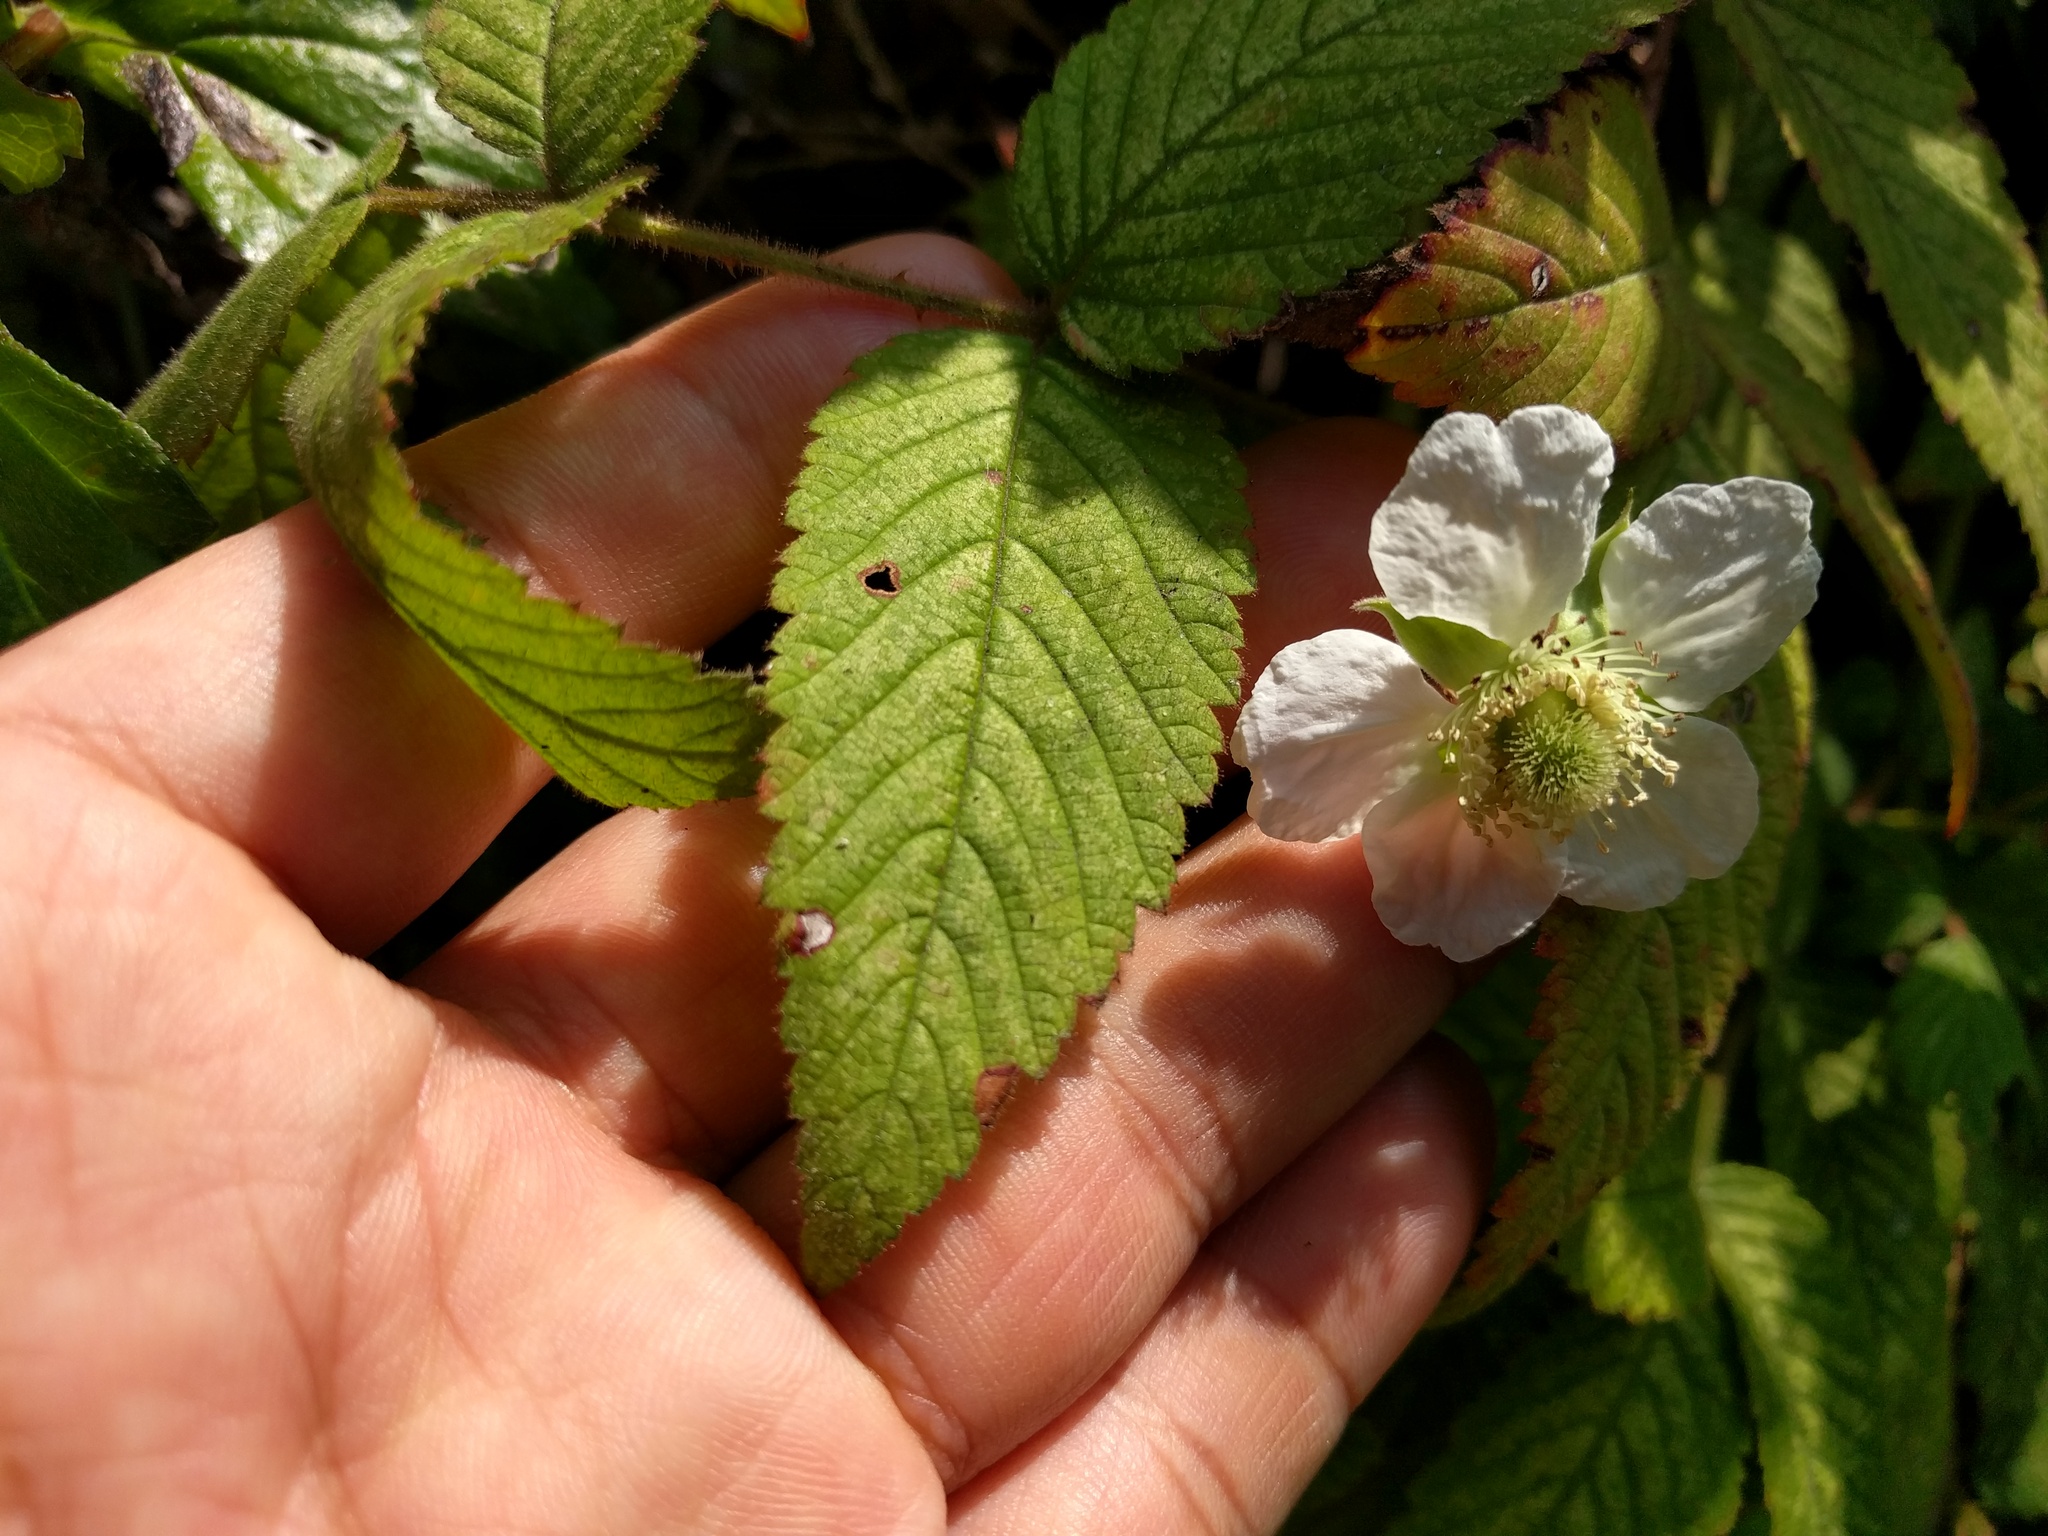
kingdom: Plantae
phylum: Tracheophyta
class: Magnoliopsida
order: Rosales
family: Rosaceae
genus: Rubus
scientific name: Rubus croceacanthus
